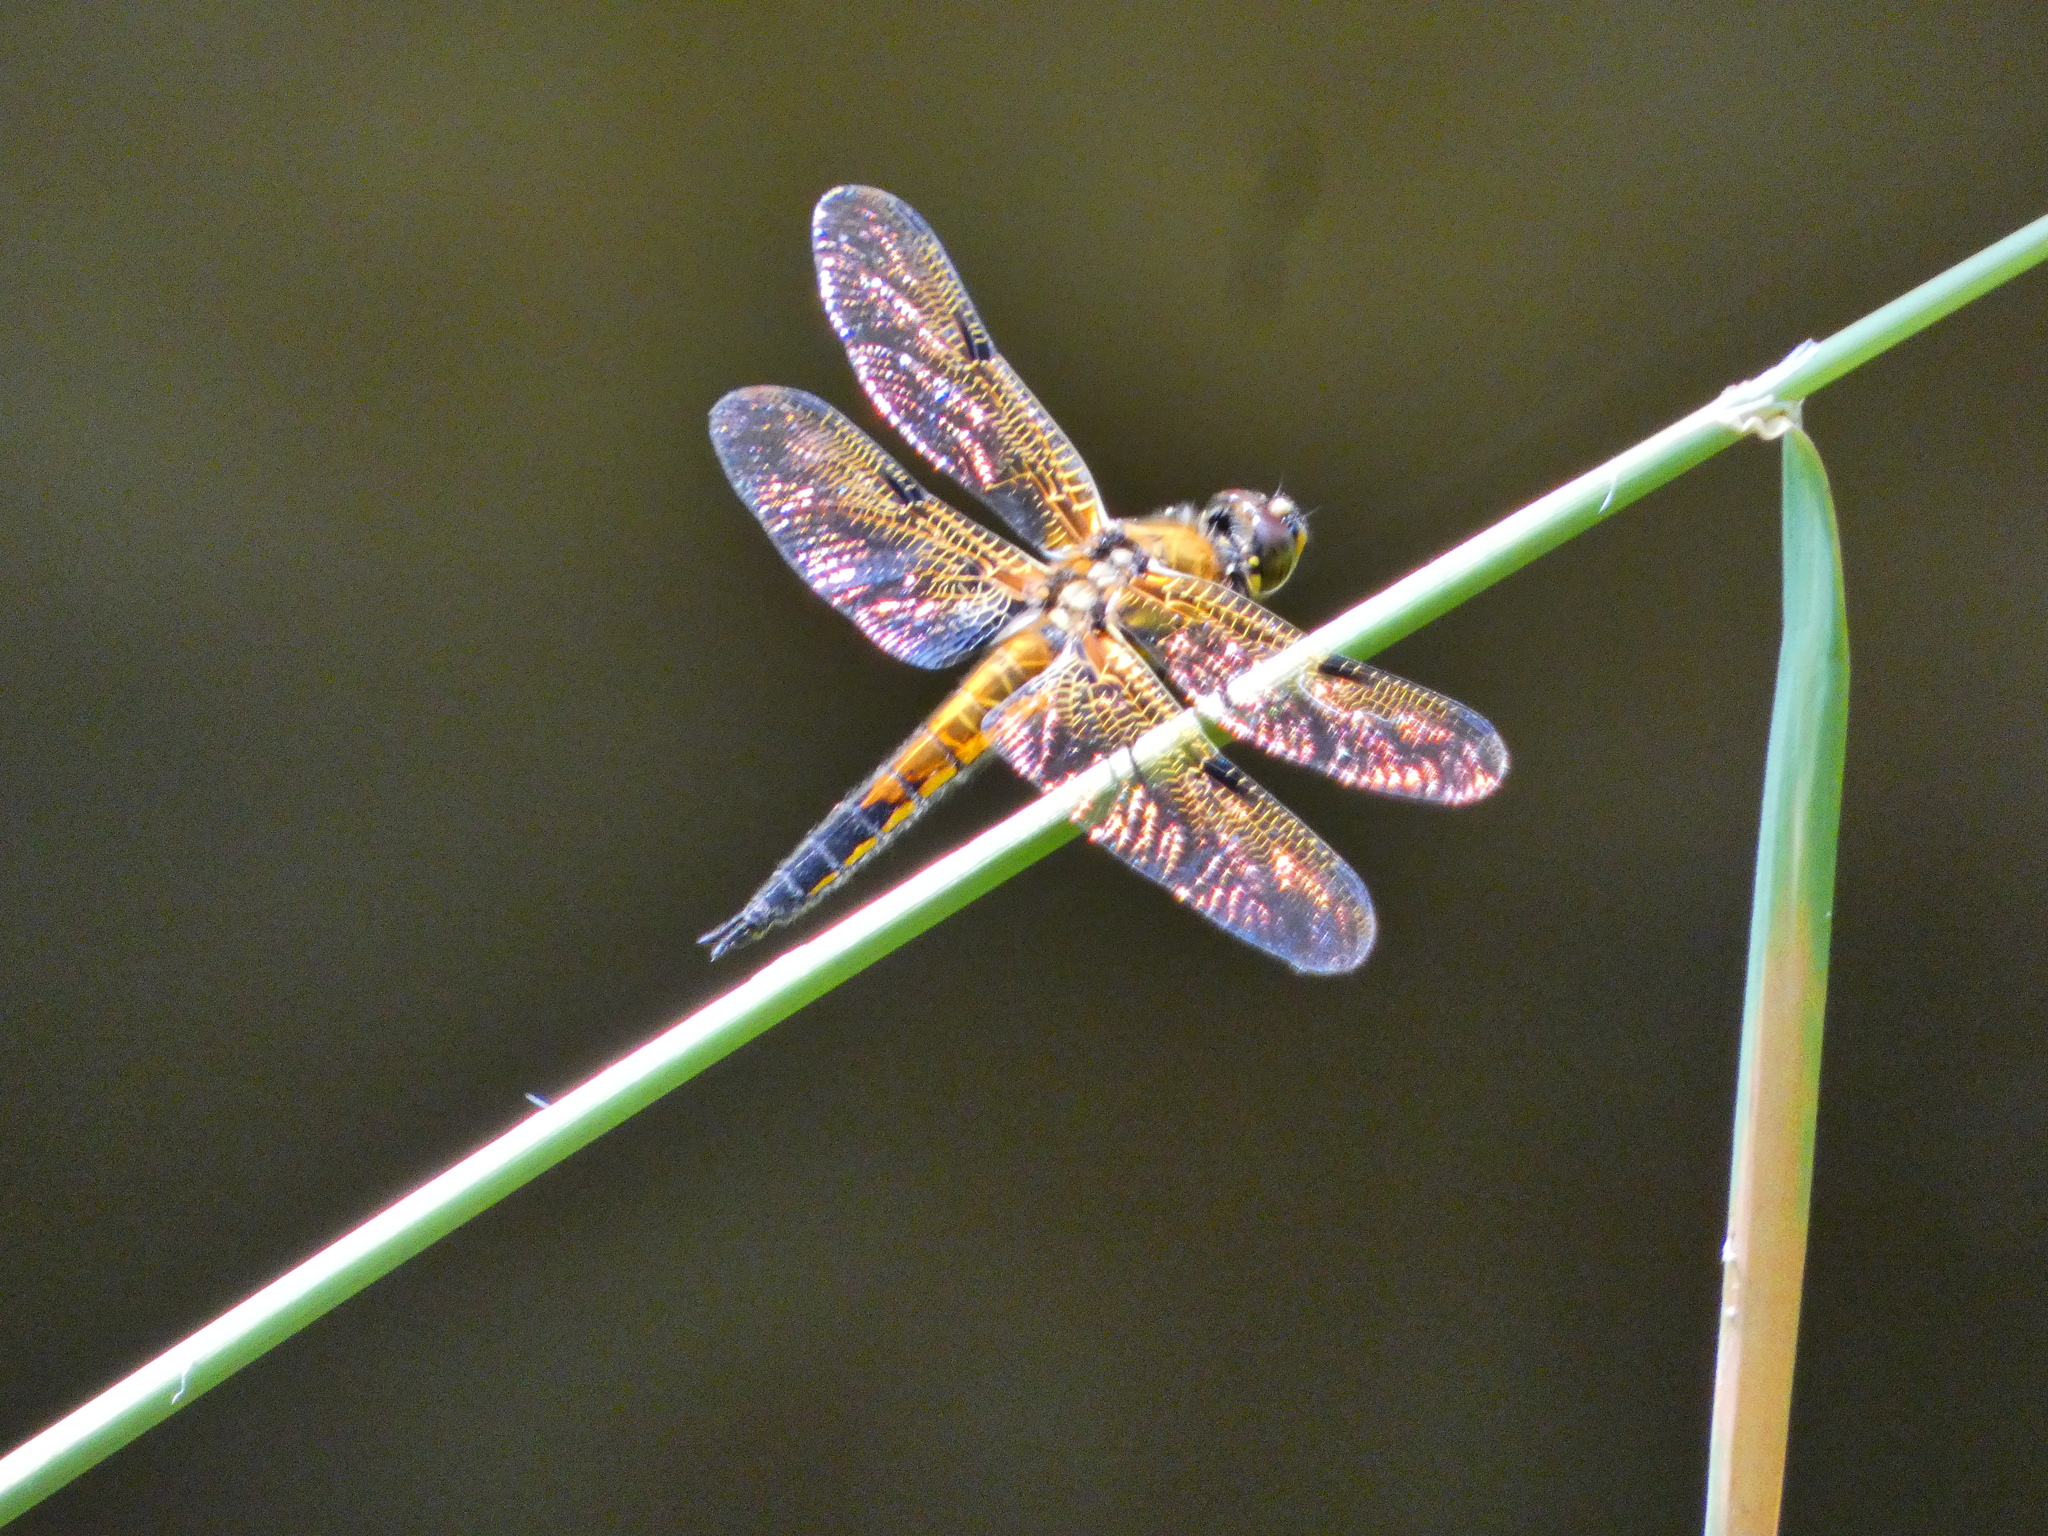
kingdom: Animalia
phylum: Arthropoda
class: Insecta
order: Odonata
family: Libellulidae
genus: Libellula
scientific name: Libellula quadrimaculata
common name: Four-spotted chaser
